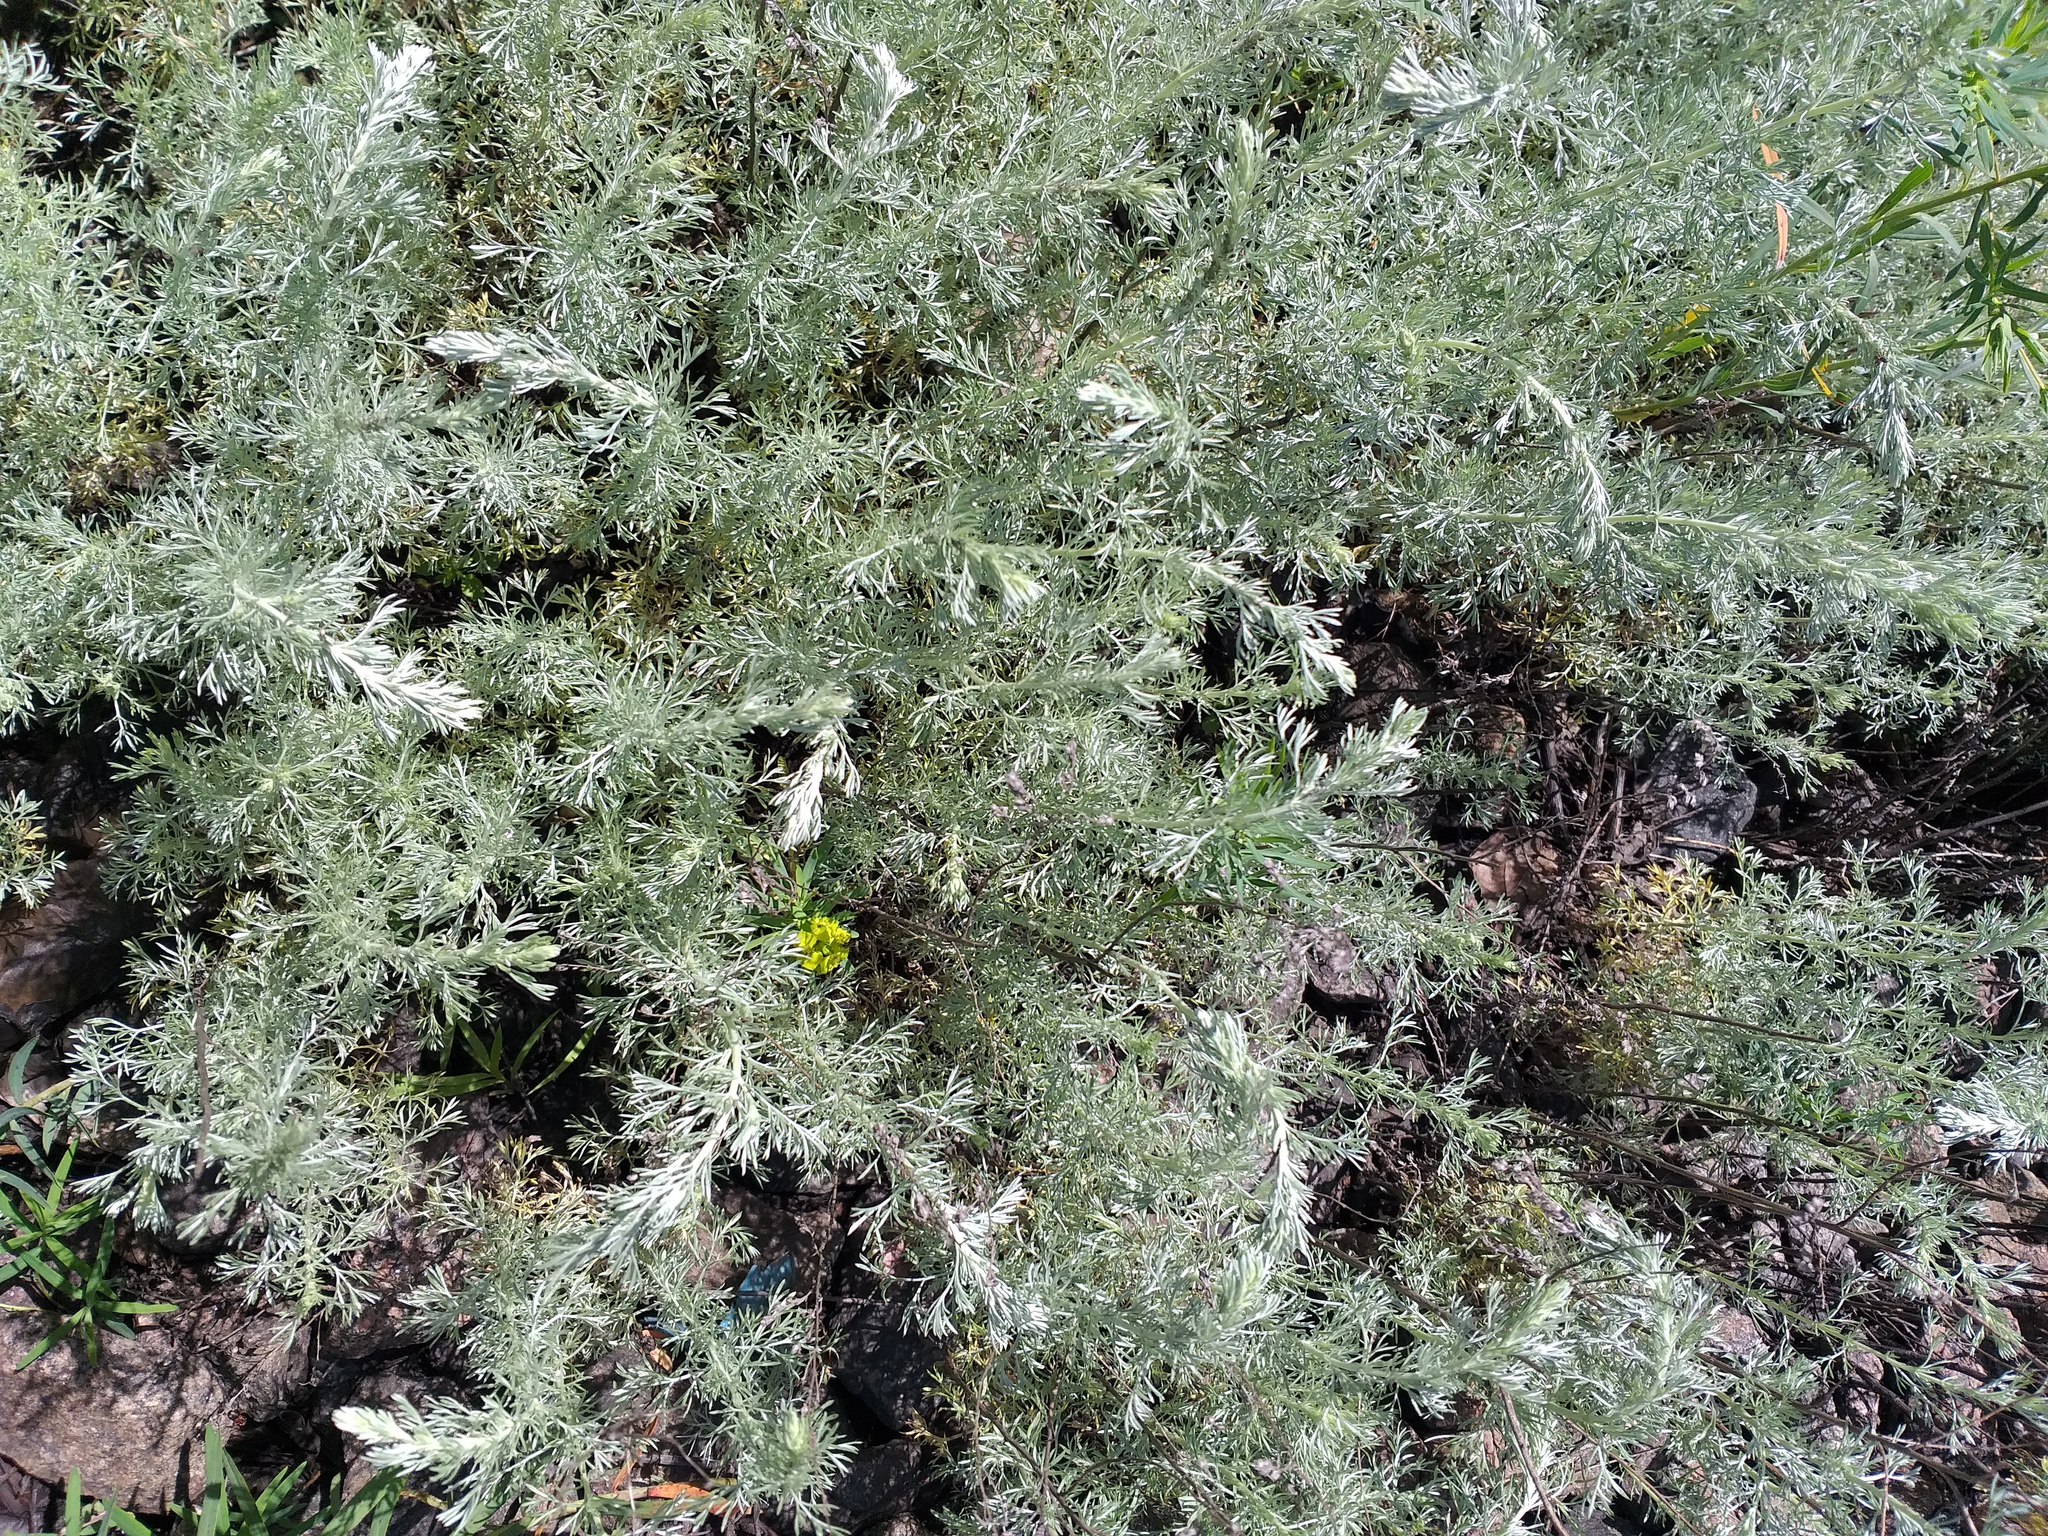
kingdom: Plantae
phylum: Tracheophyta
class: Magnoliopsida
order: Asterales
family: Asteraceae
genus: Artemisia
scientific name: Artemisia austriaca
